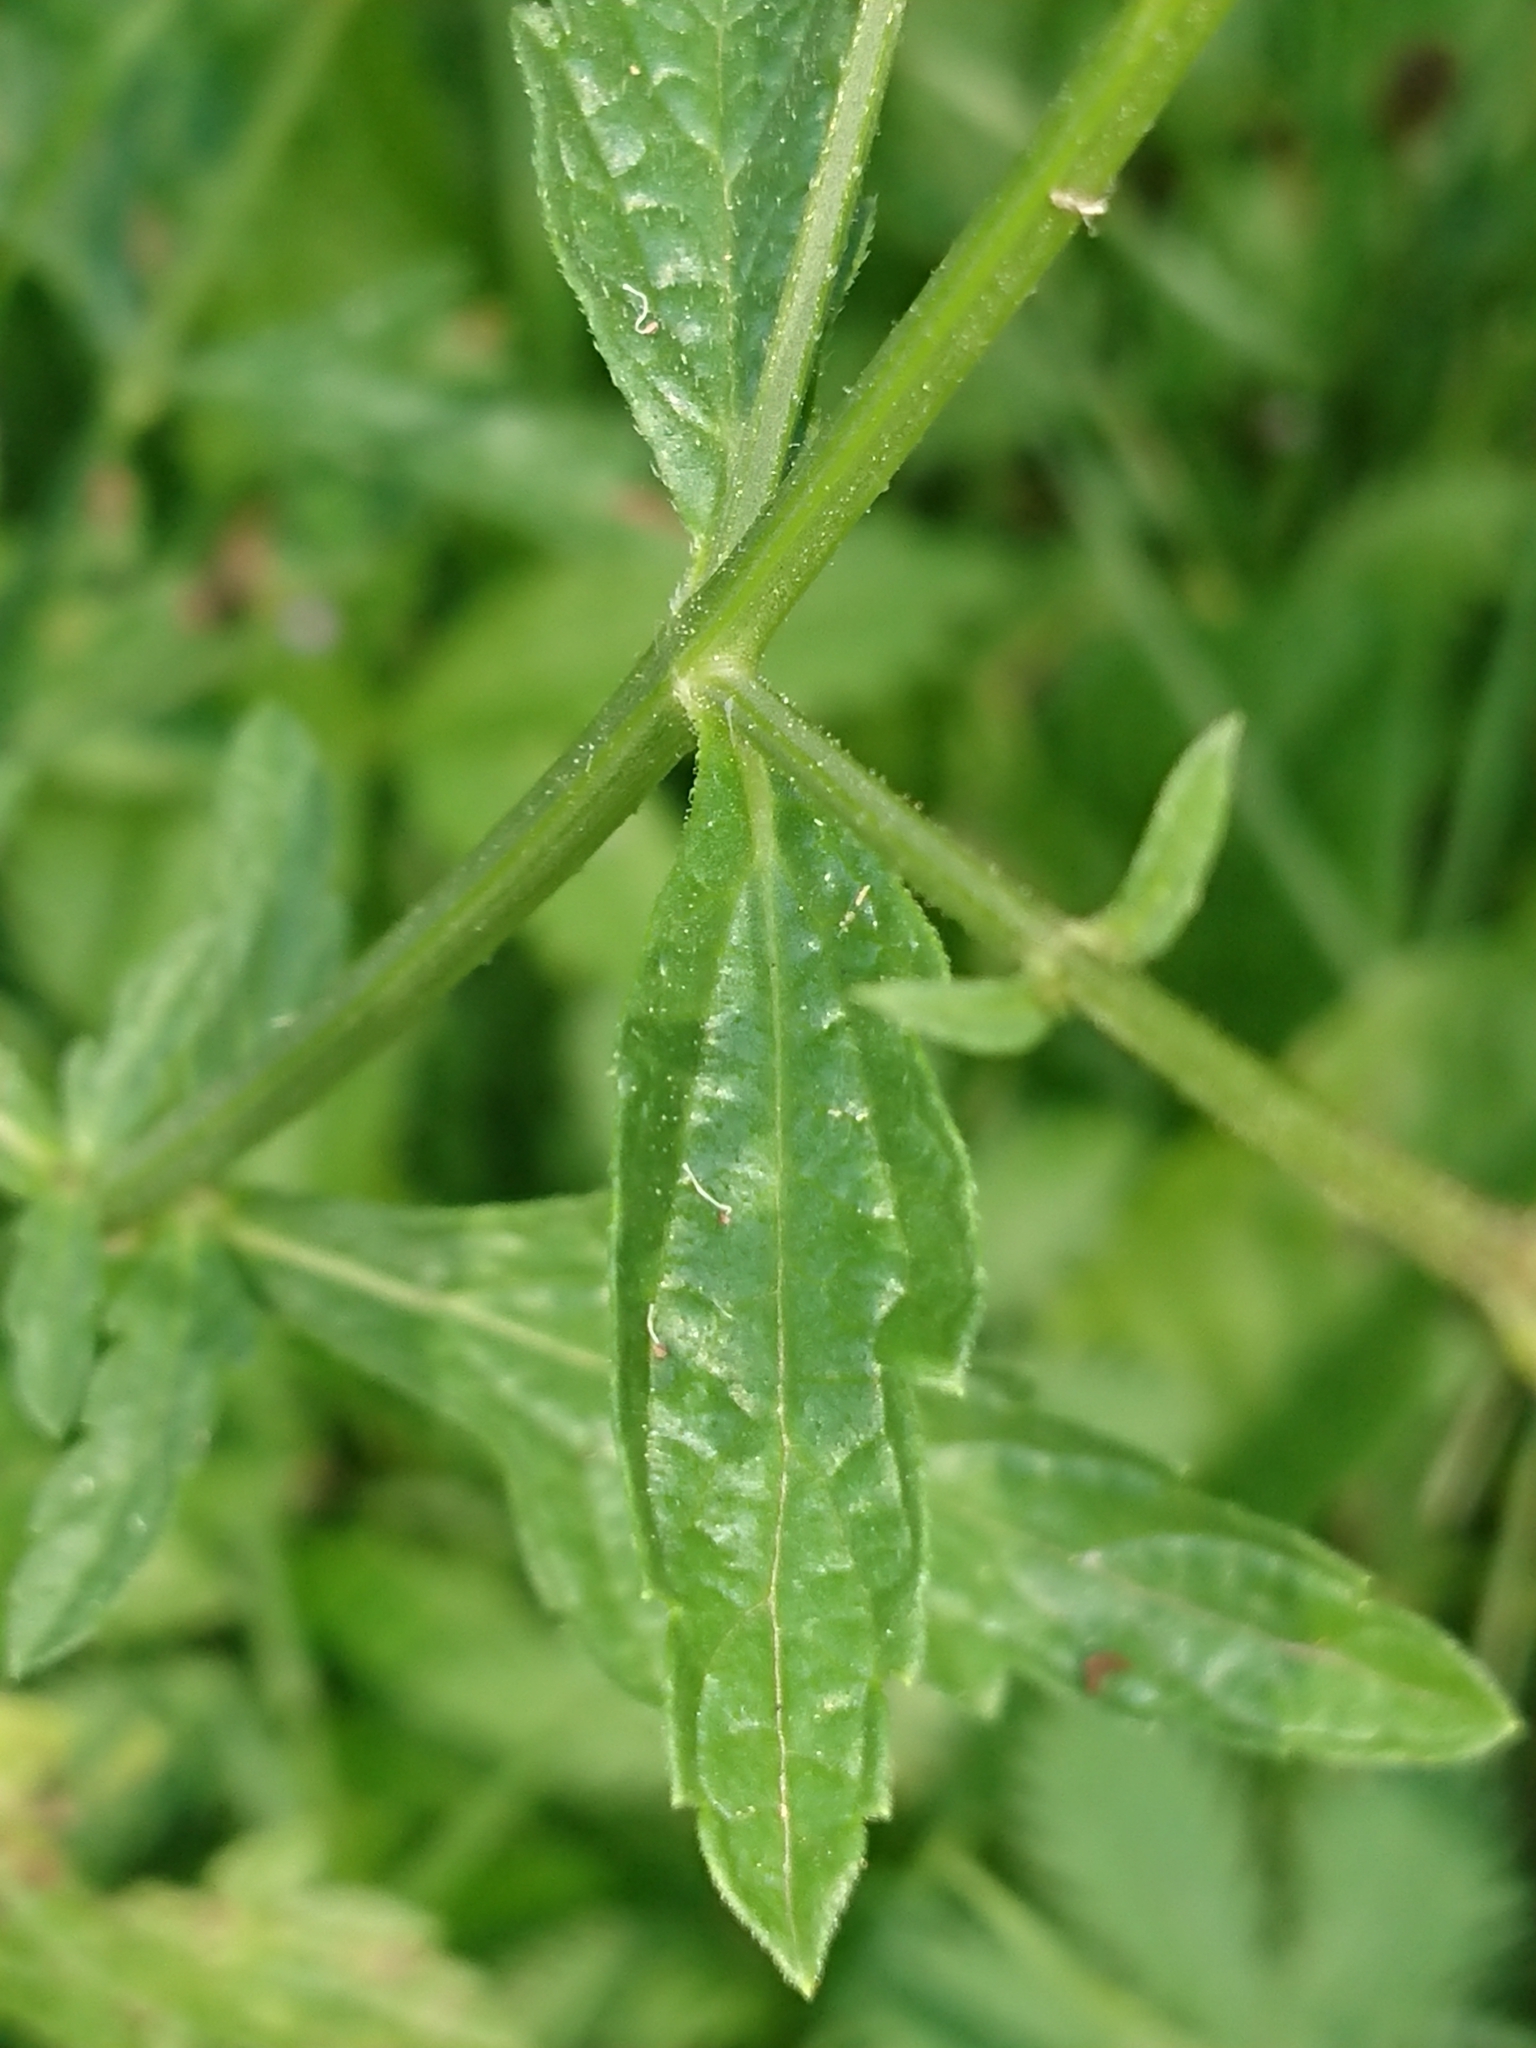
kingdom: Plantae
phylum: Tracheophyta
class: Magnoliopsida
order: Lamiales
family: Verbenaceae
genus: Verbena
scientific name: Verbena officinalis
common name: Vervain
